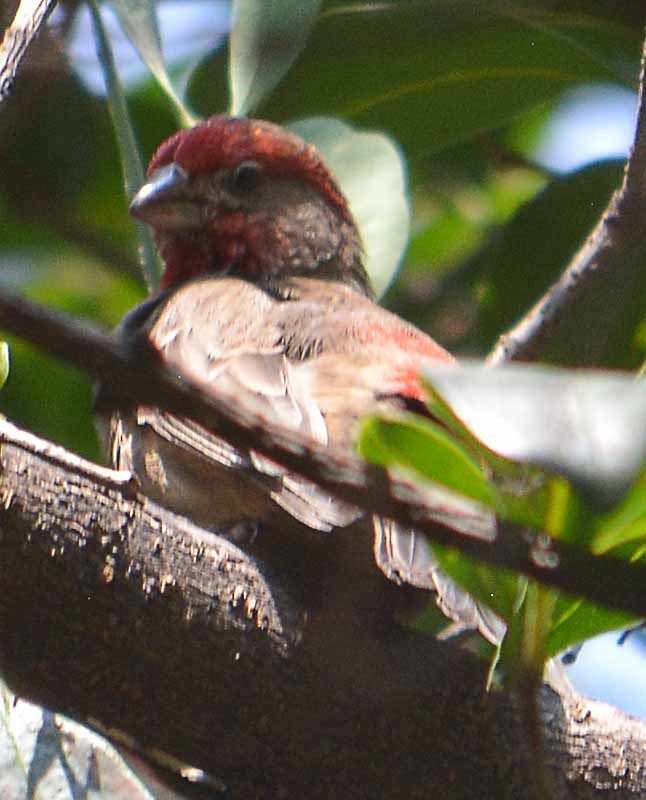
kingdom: Animalia
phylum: Chordata
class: Aves
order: Passeriformes
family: Fringillidae
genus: Haemorhous
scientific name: Haemorhous mexicanus
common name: House finch
